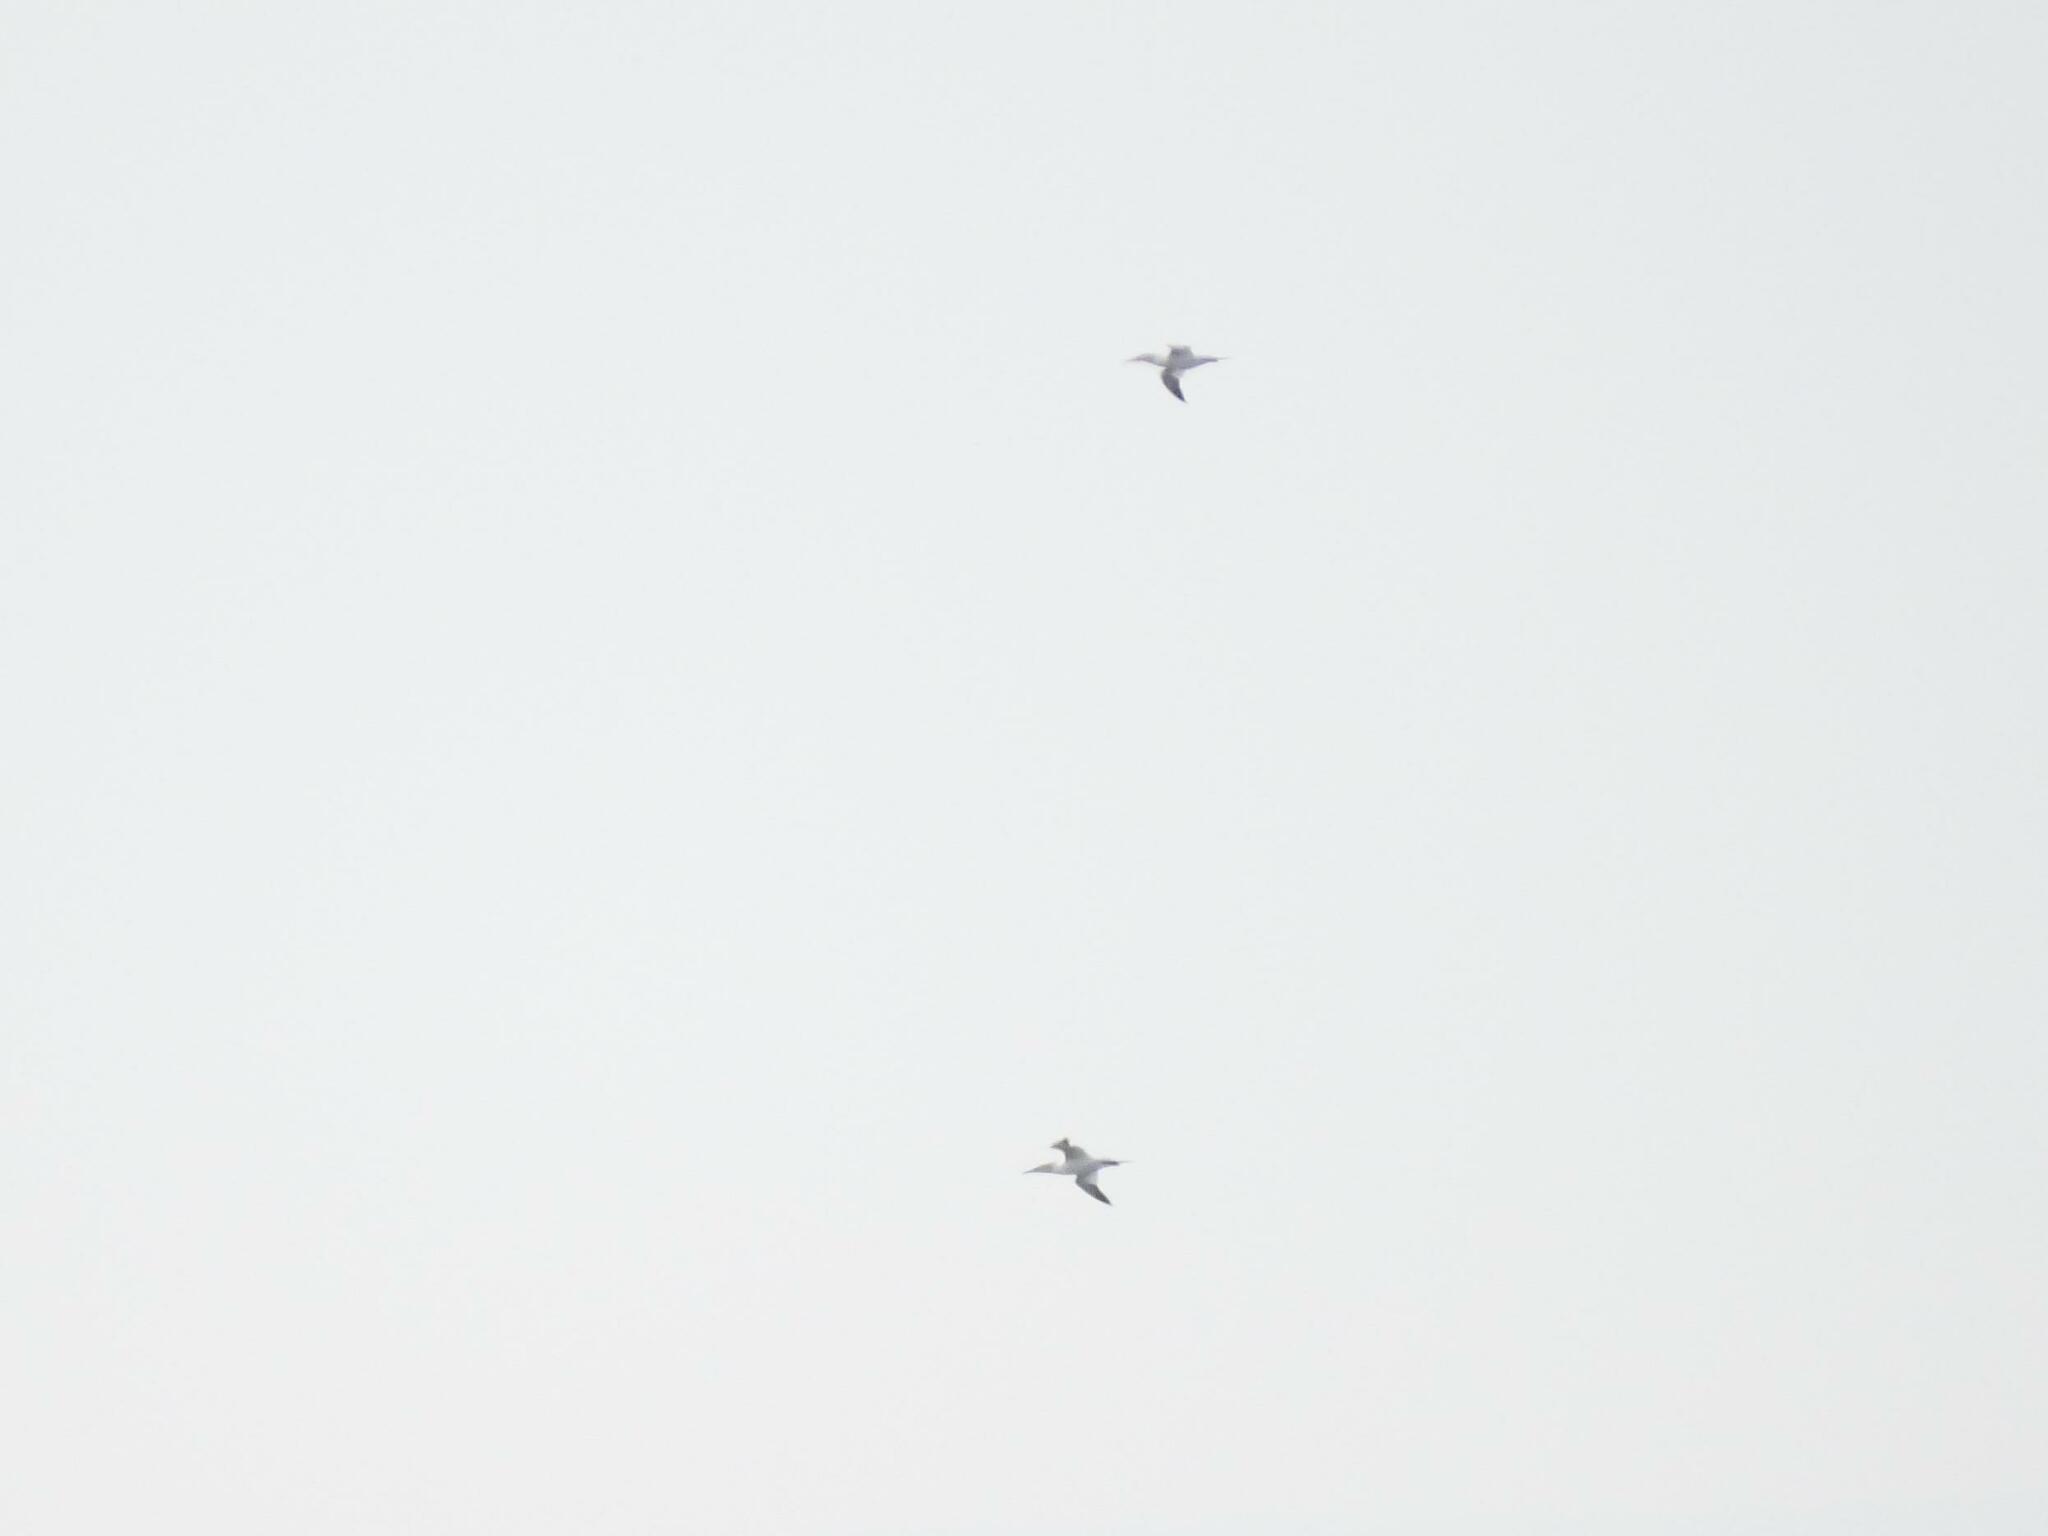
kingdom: Animalia
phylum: Chordata
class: Aves
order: Suliformes
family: Sulidae
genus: Morus
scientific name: Morus bassanus
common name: Northern gannet
